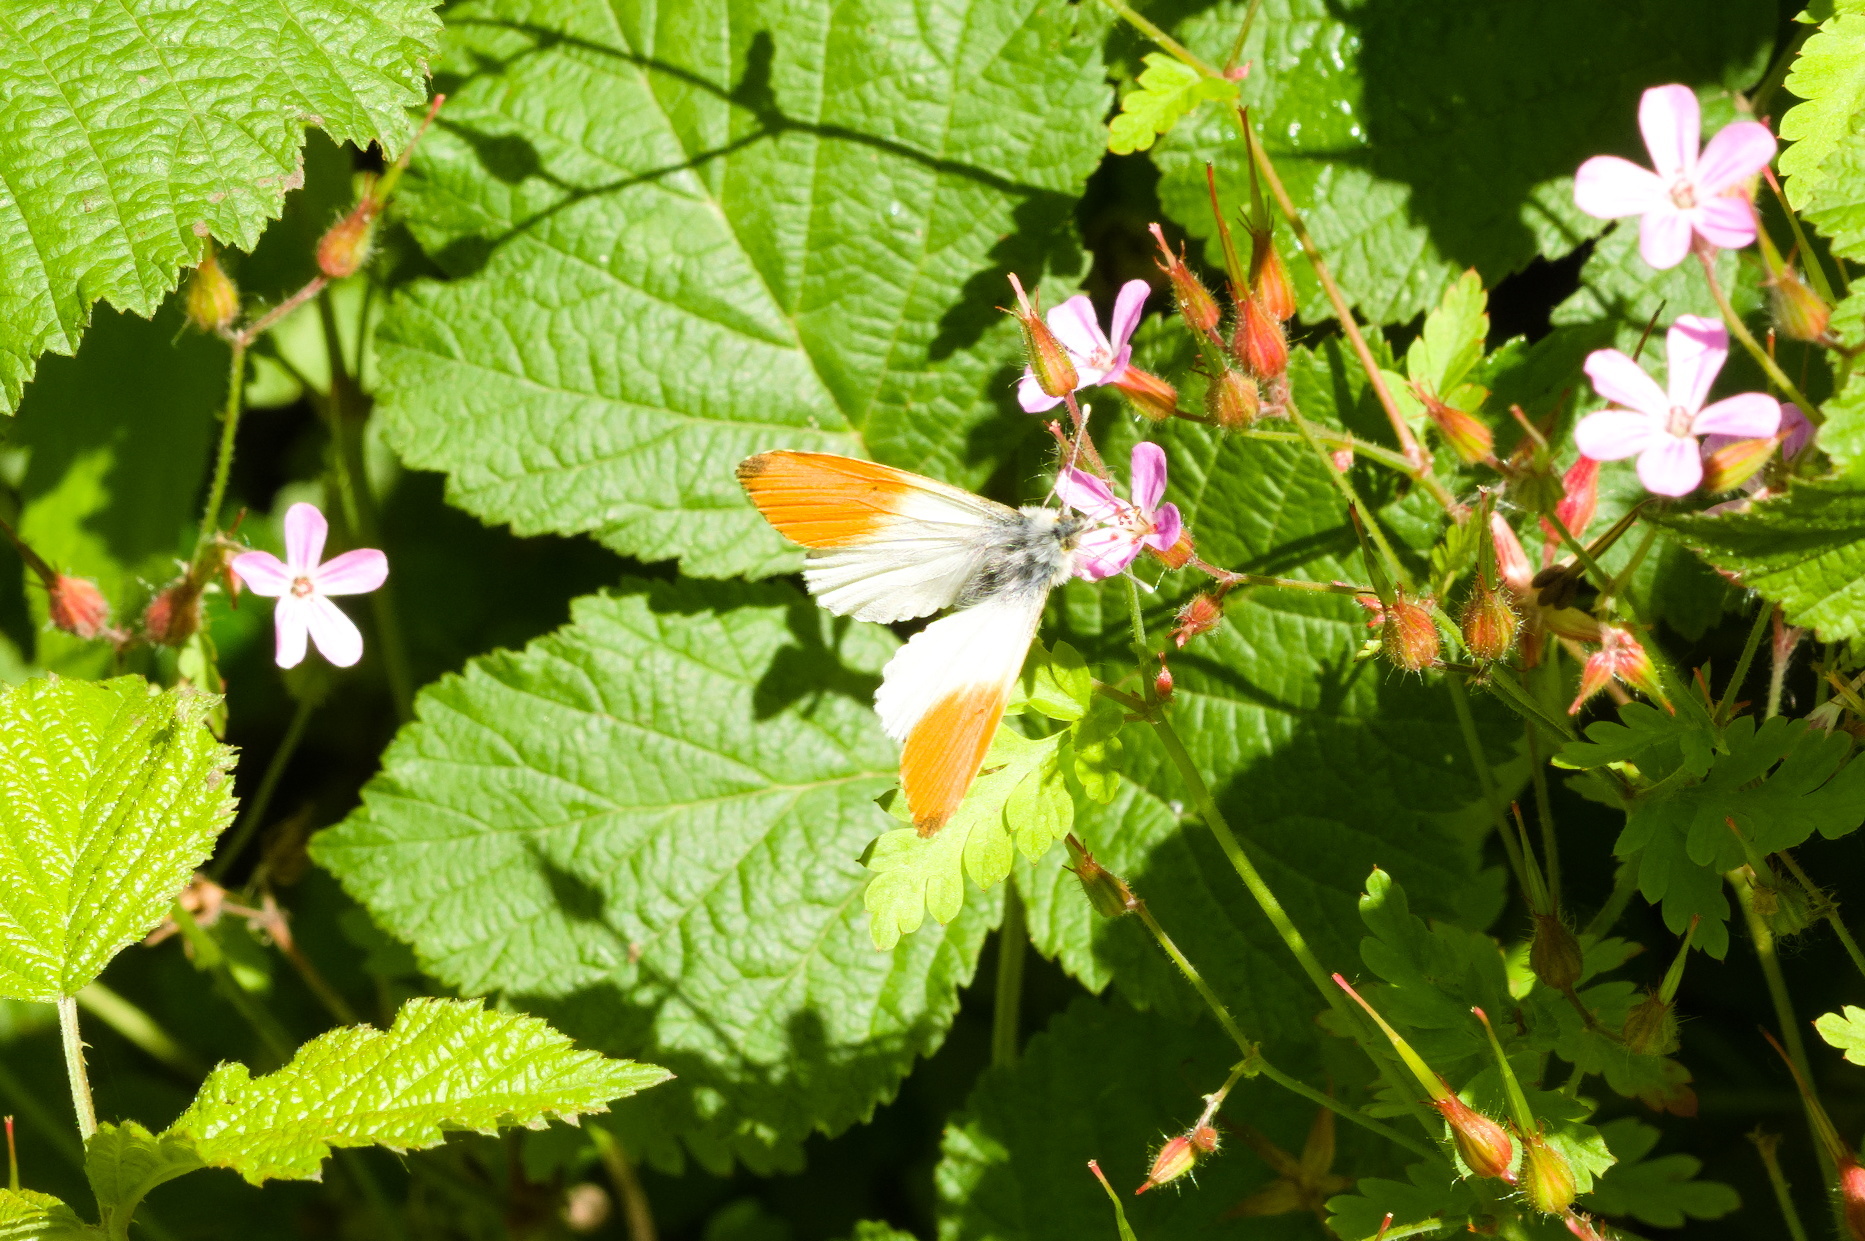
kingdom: Animalia
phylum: Arthropoda
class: Insecta
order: Lepidoptera
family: Pieridae
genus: Anthocharis
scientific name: Anthocharis cardamines
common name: Orange-tip
